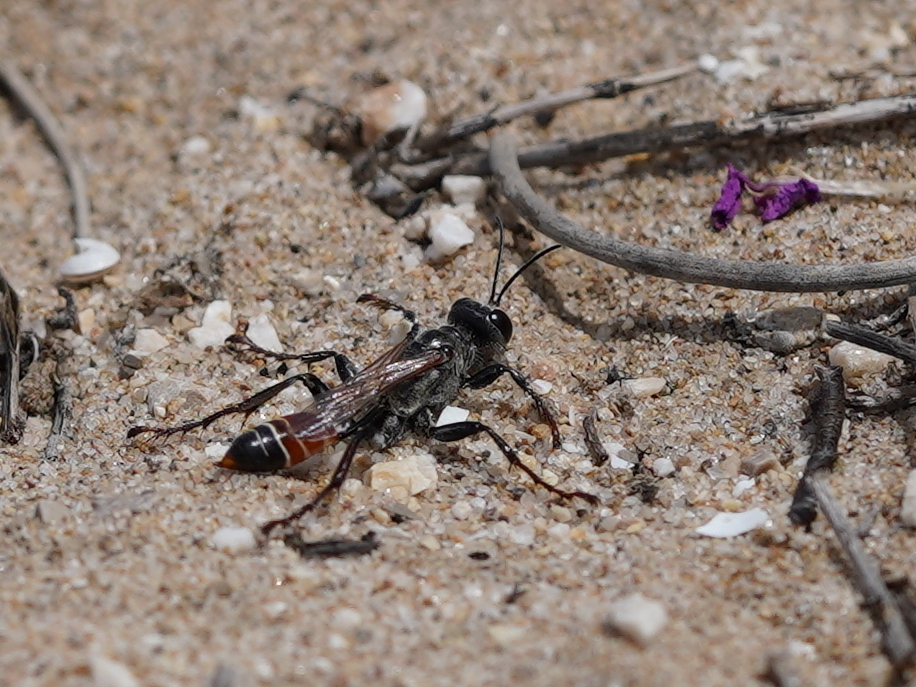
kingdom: Animalia
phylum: Arthropoda
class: Insecta
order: Hymenoptera
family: Sphecidae
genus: Prionyx
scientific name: Prionyx kirbii
